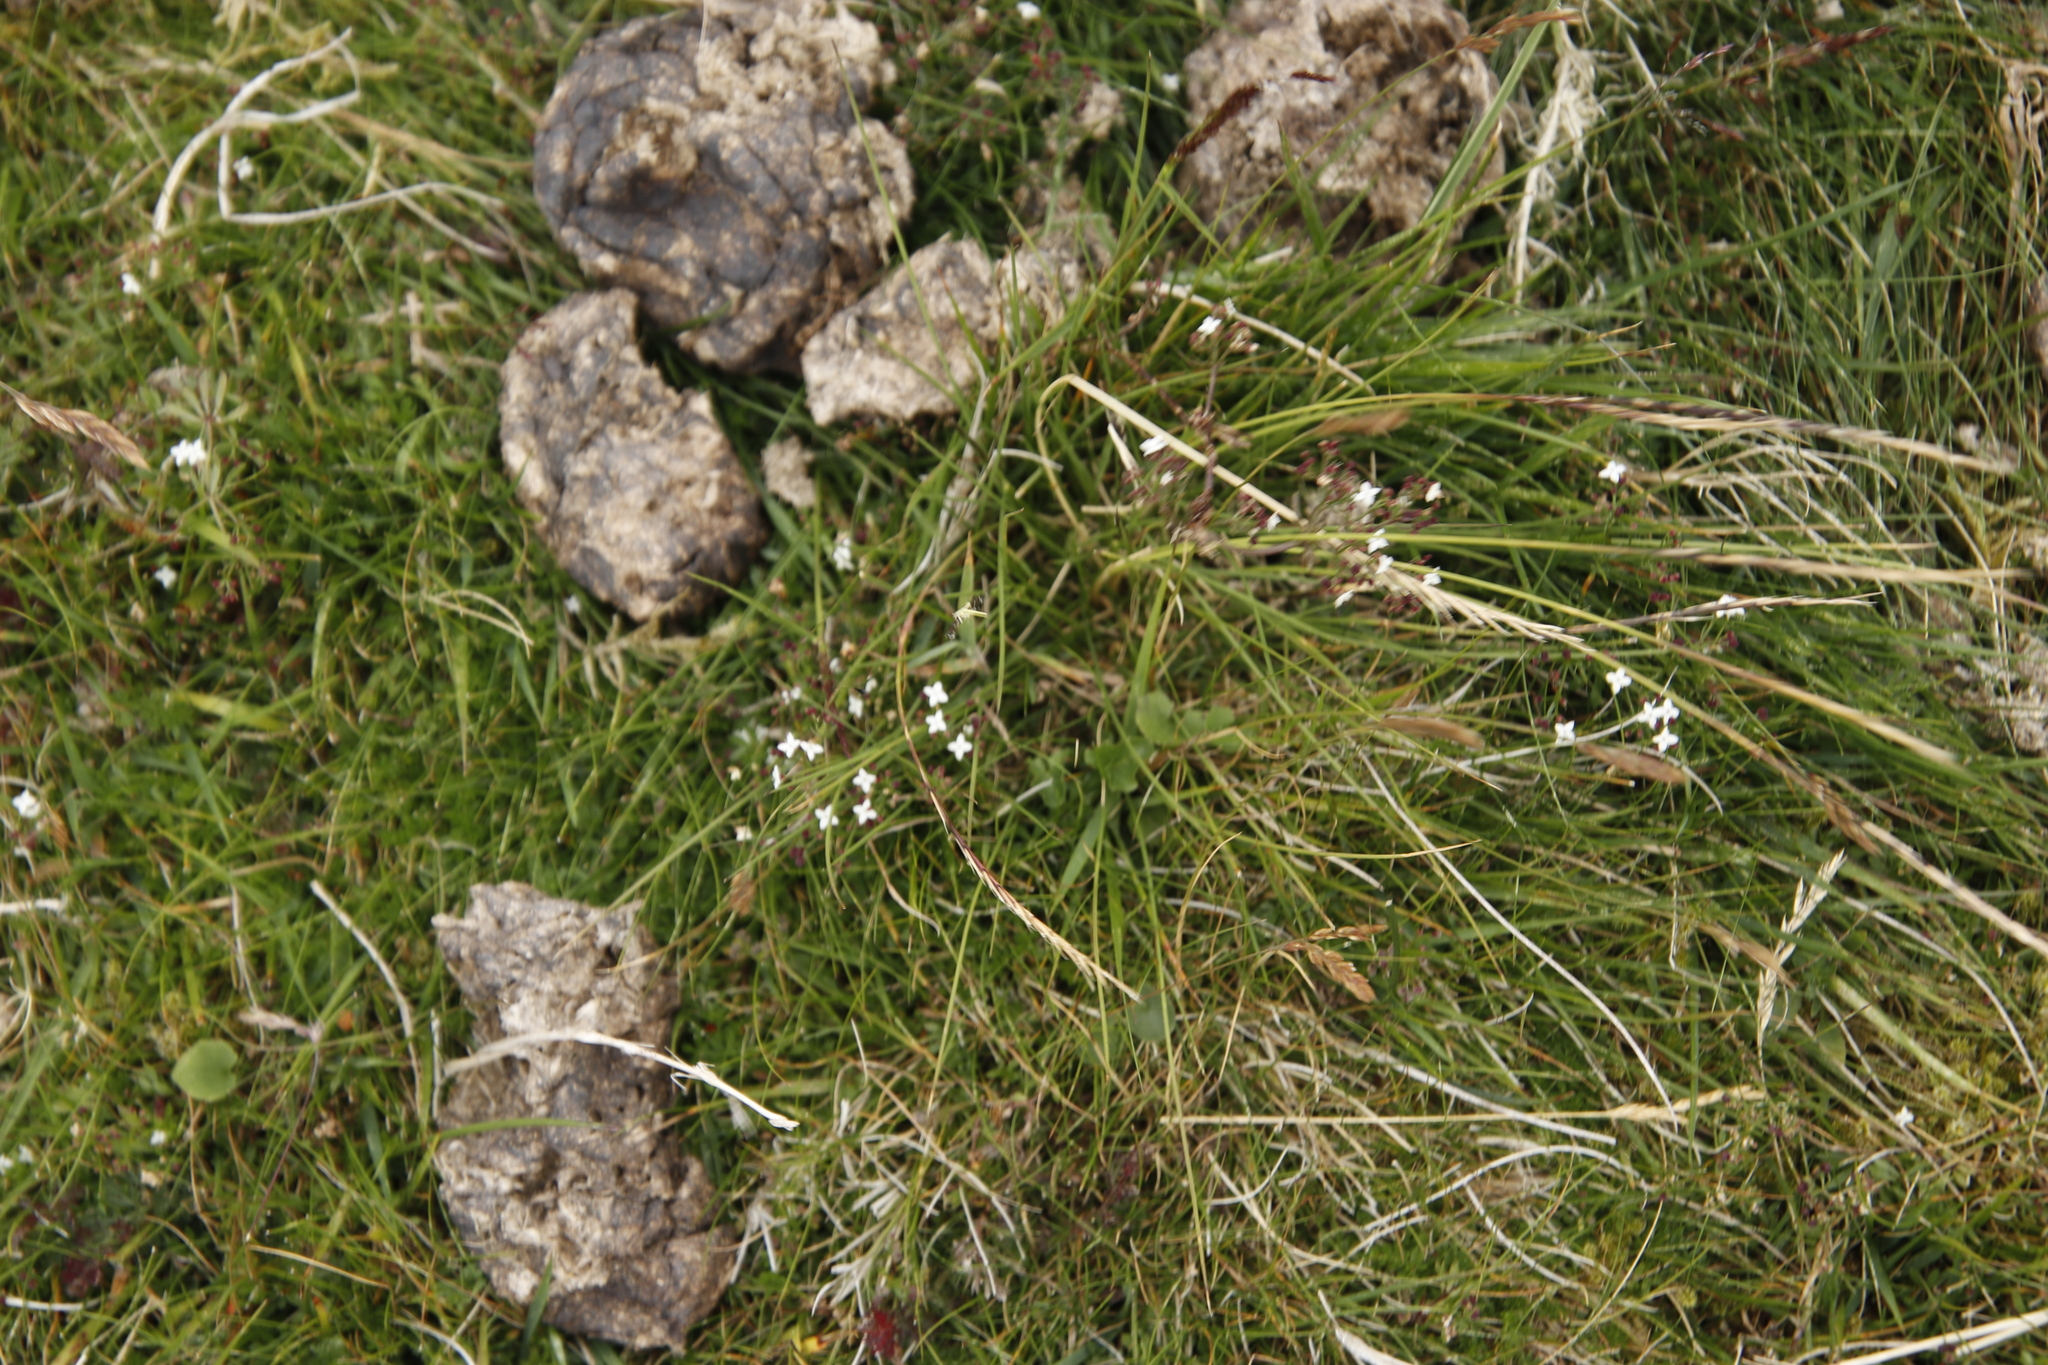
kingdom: Plantae
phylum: Tracheophyta
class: Magnoliopsida
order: Gentianales
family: Rubiaceae
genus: Galium
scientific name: Galium saxatile
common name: Heath bedstraw
